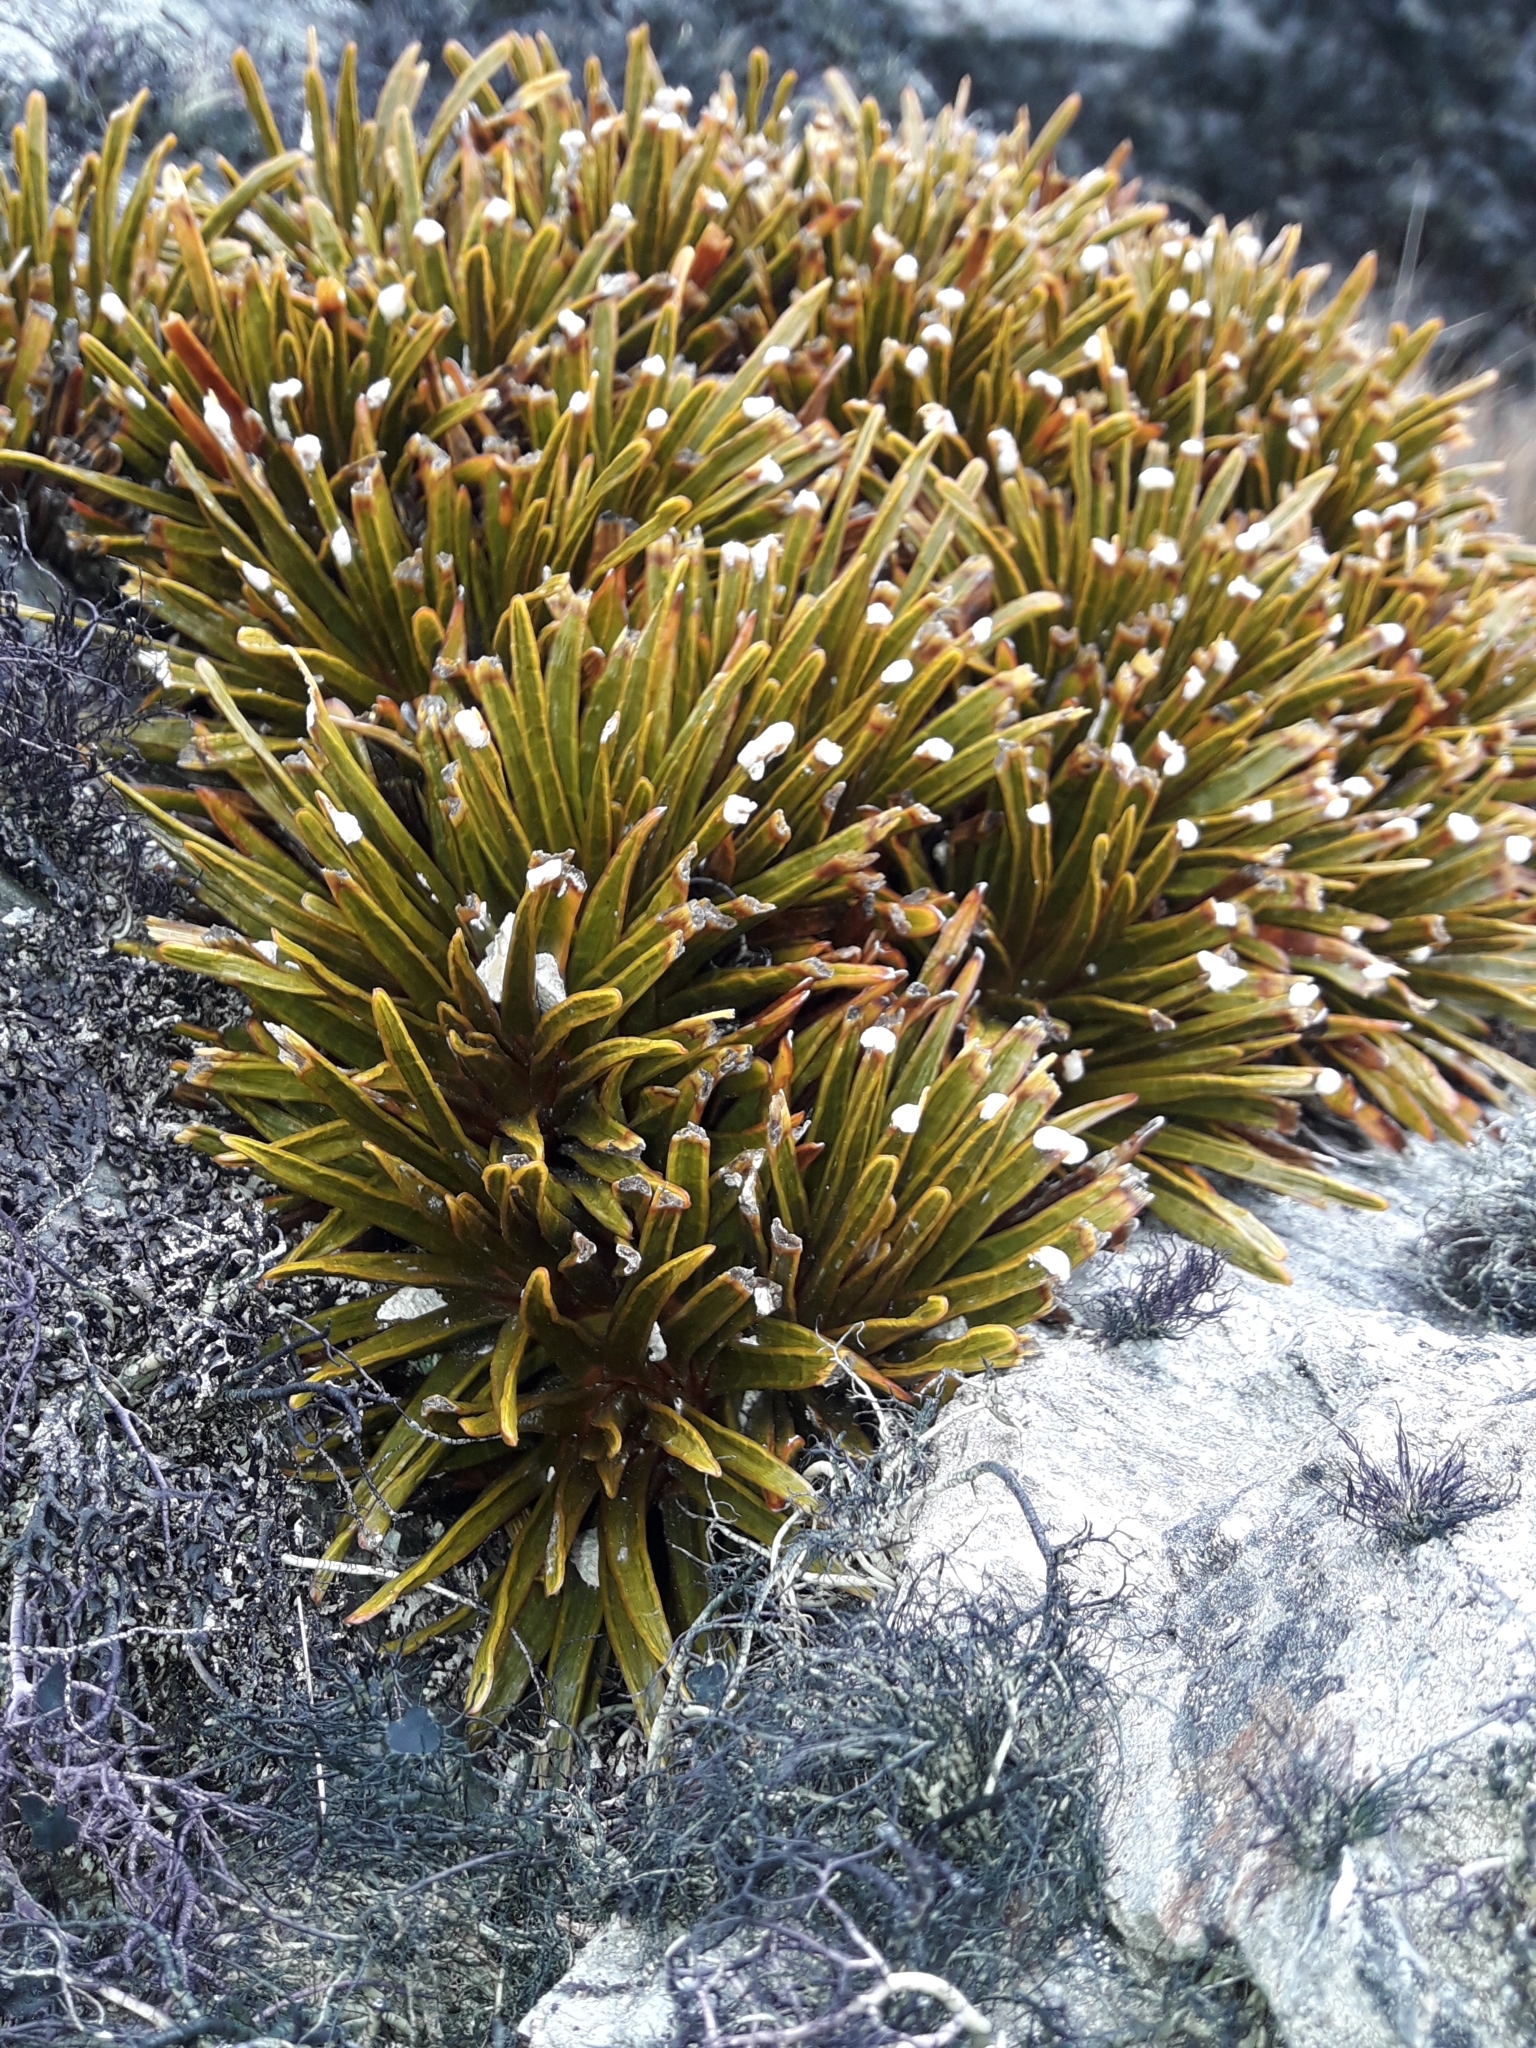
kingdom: Plantae
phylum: Tracheophyta
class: Magnoliopsida
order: Apiales
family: Apiaceae
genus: Aciphylla
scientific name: Aciphylla simplex
